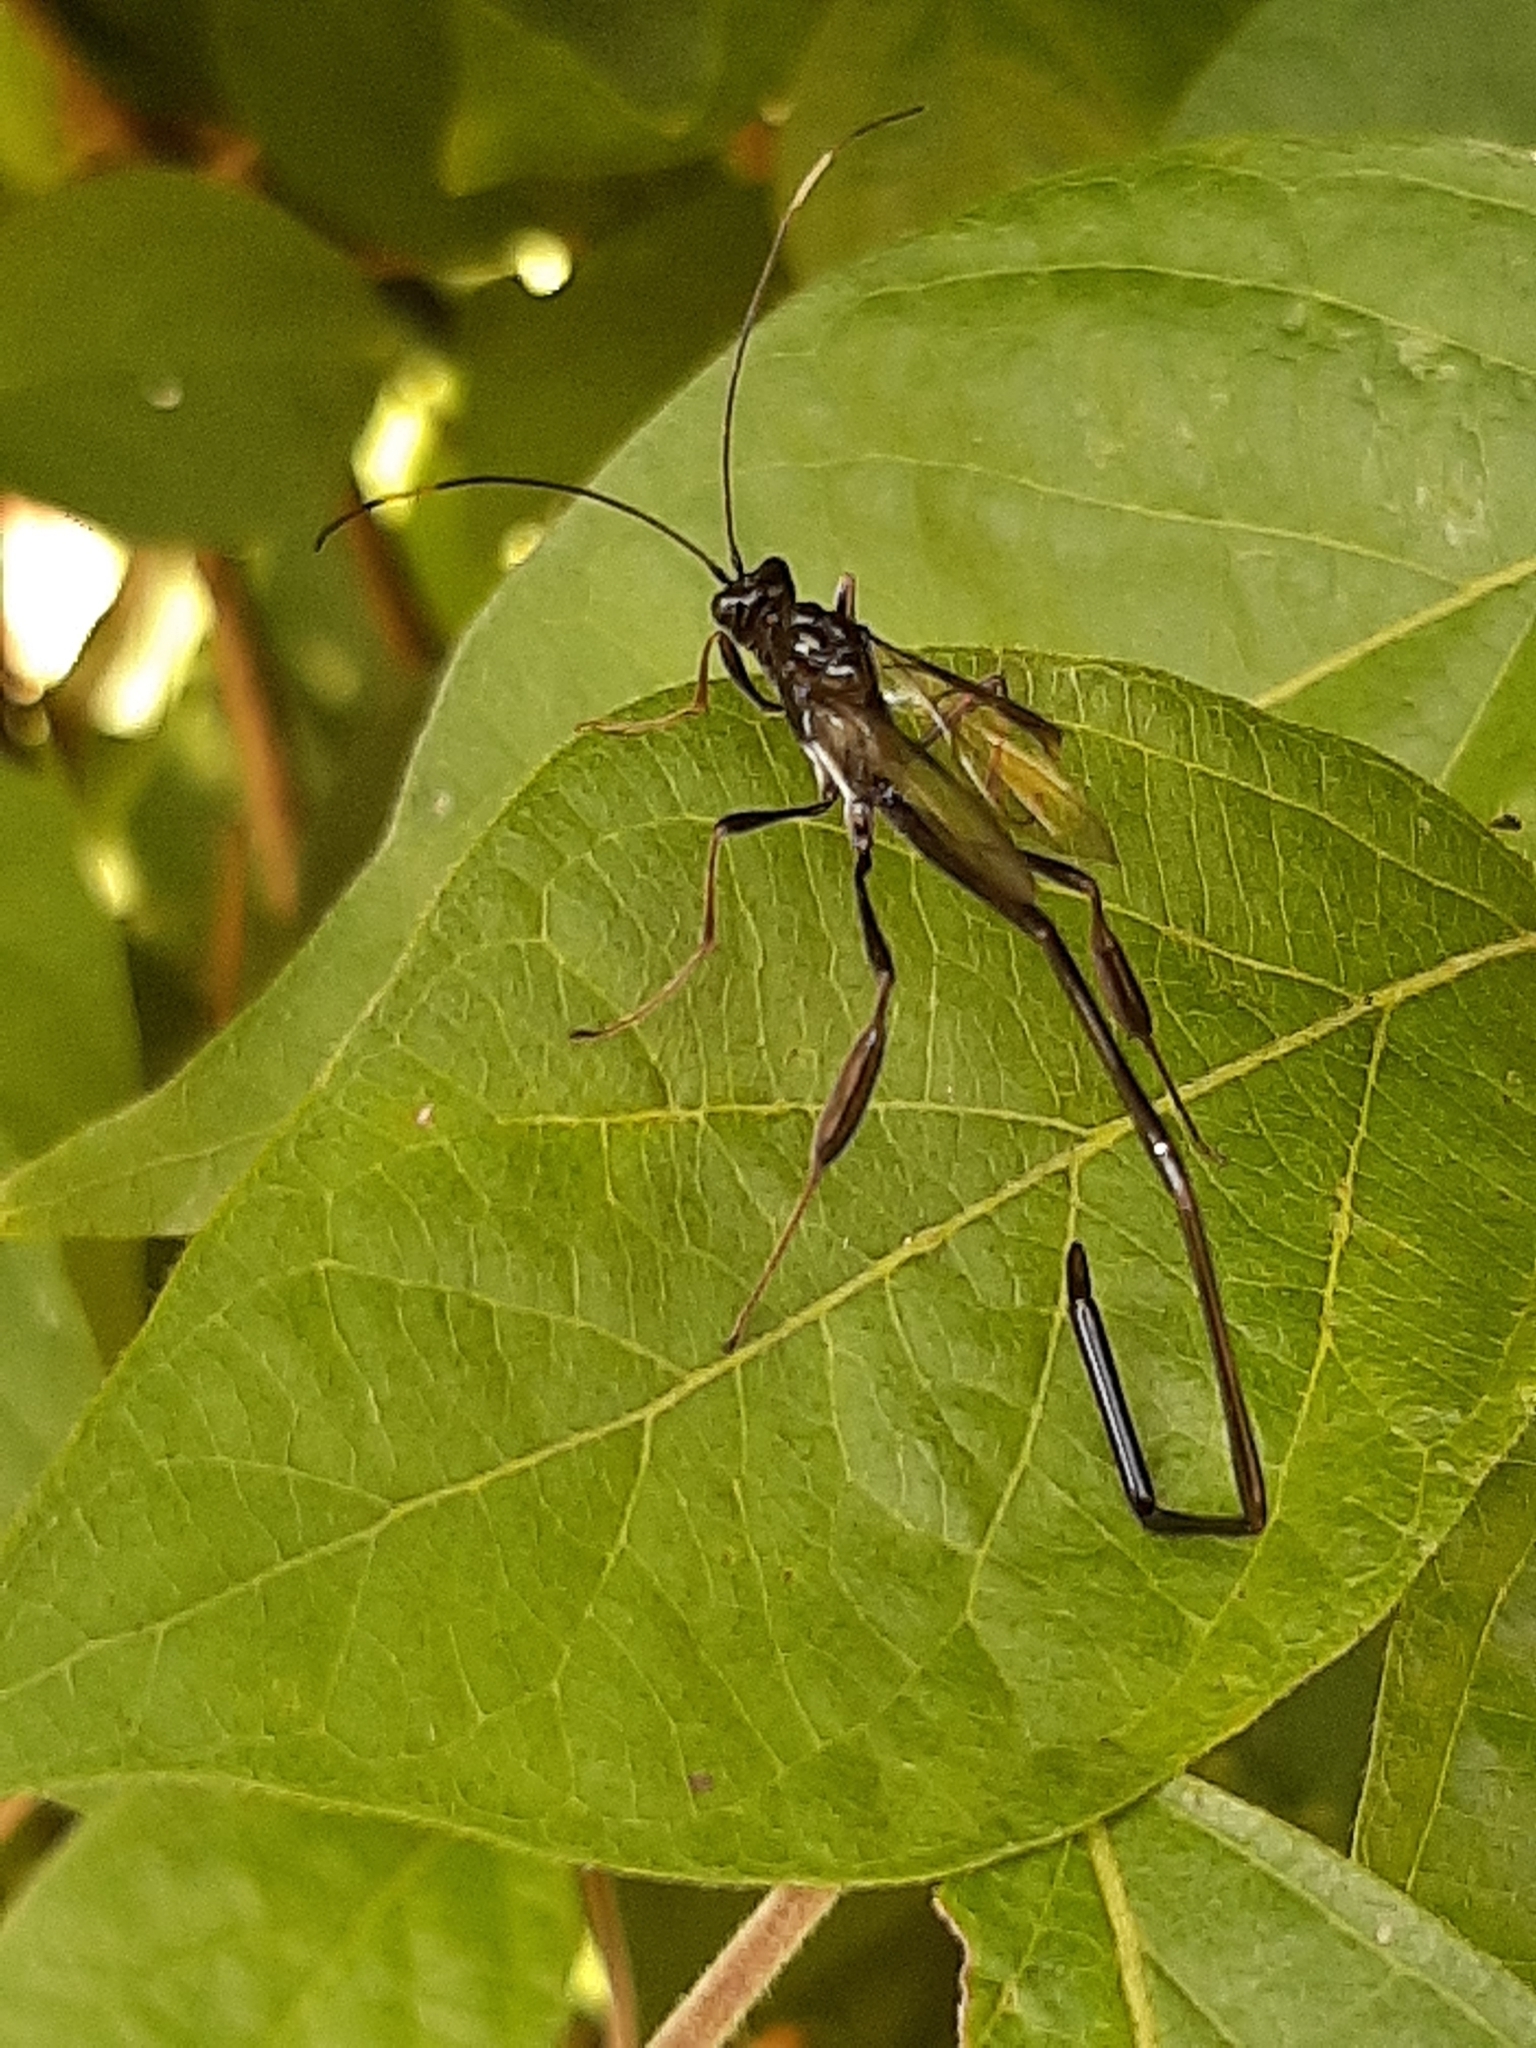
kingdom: Animalia
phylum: Arthropoda
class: Insecta
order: Hymenoptera
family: Pelecinidae
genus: Pelecinus
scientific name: Pelecinus polyturator
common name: American pelecinid wasp
